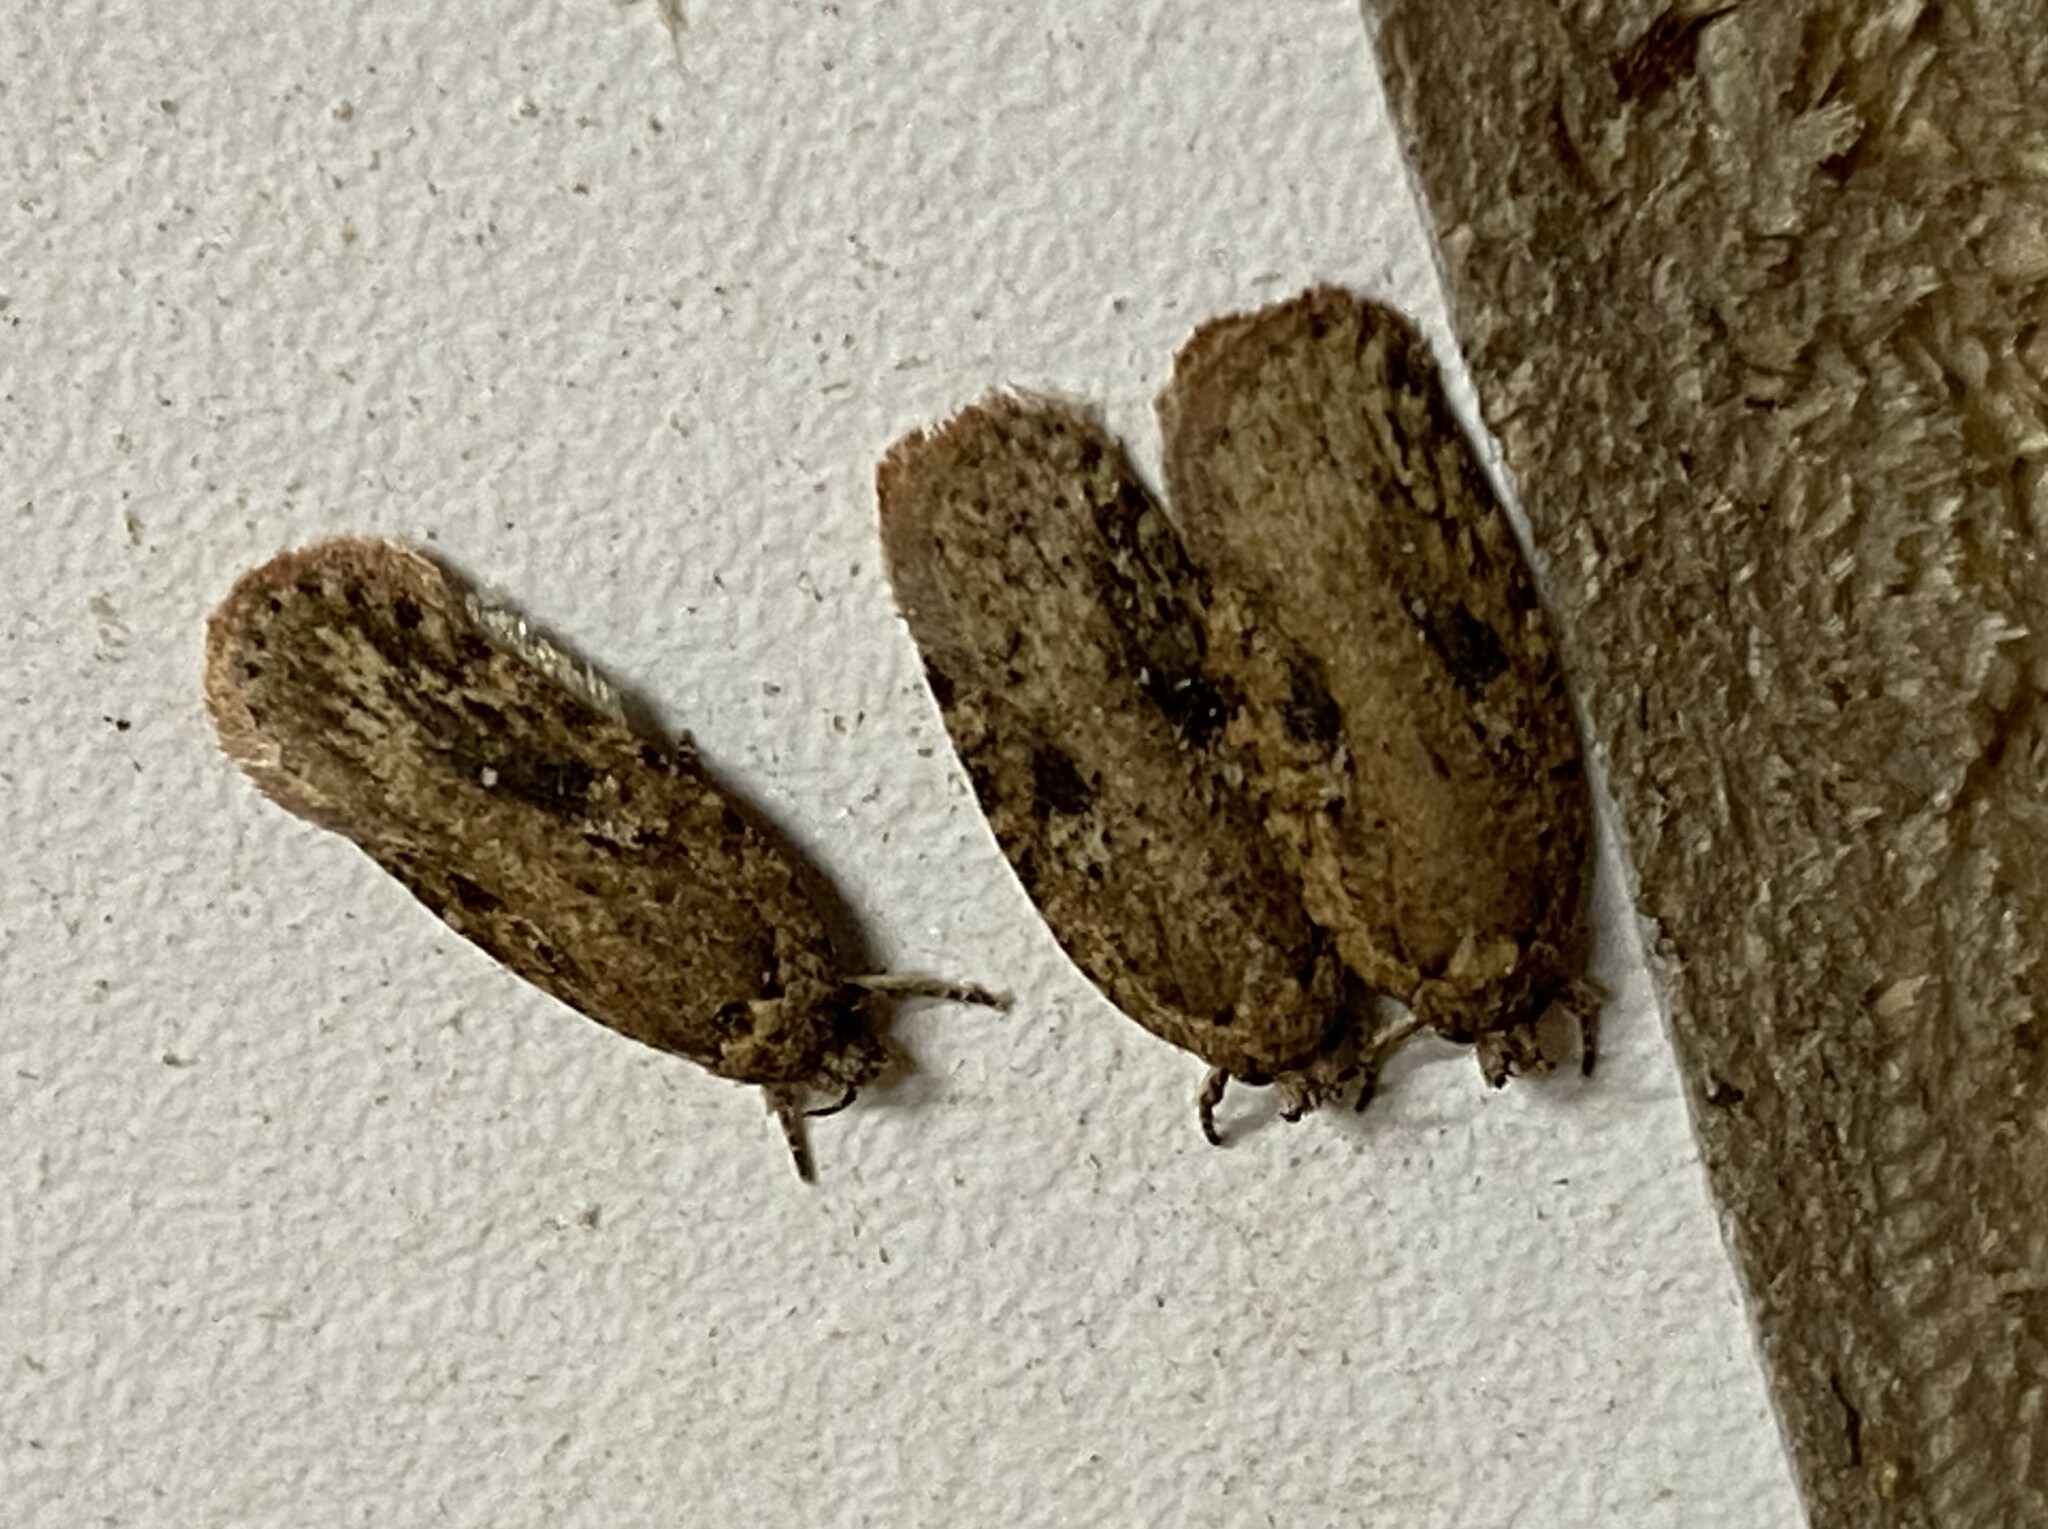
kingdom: Animalia
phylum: Arthropoda
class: Insecta
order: Lepidoptera
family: Depressariidae
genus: Agonopterix
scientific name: Agonopterix pulvipennella
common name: Goldenrod leafffolder
